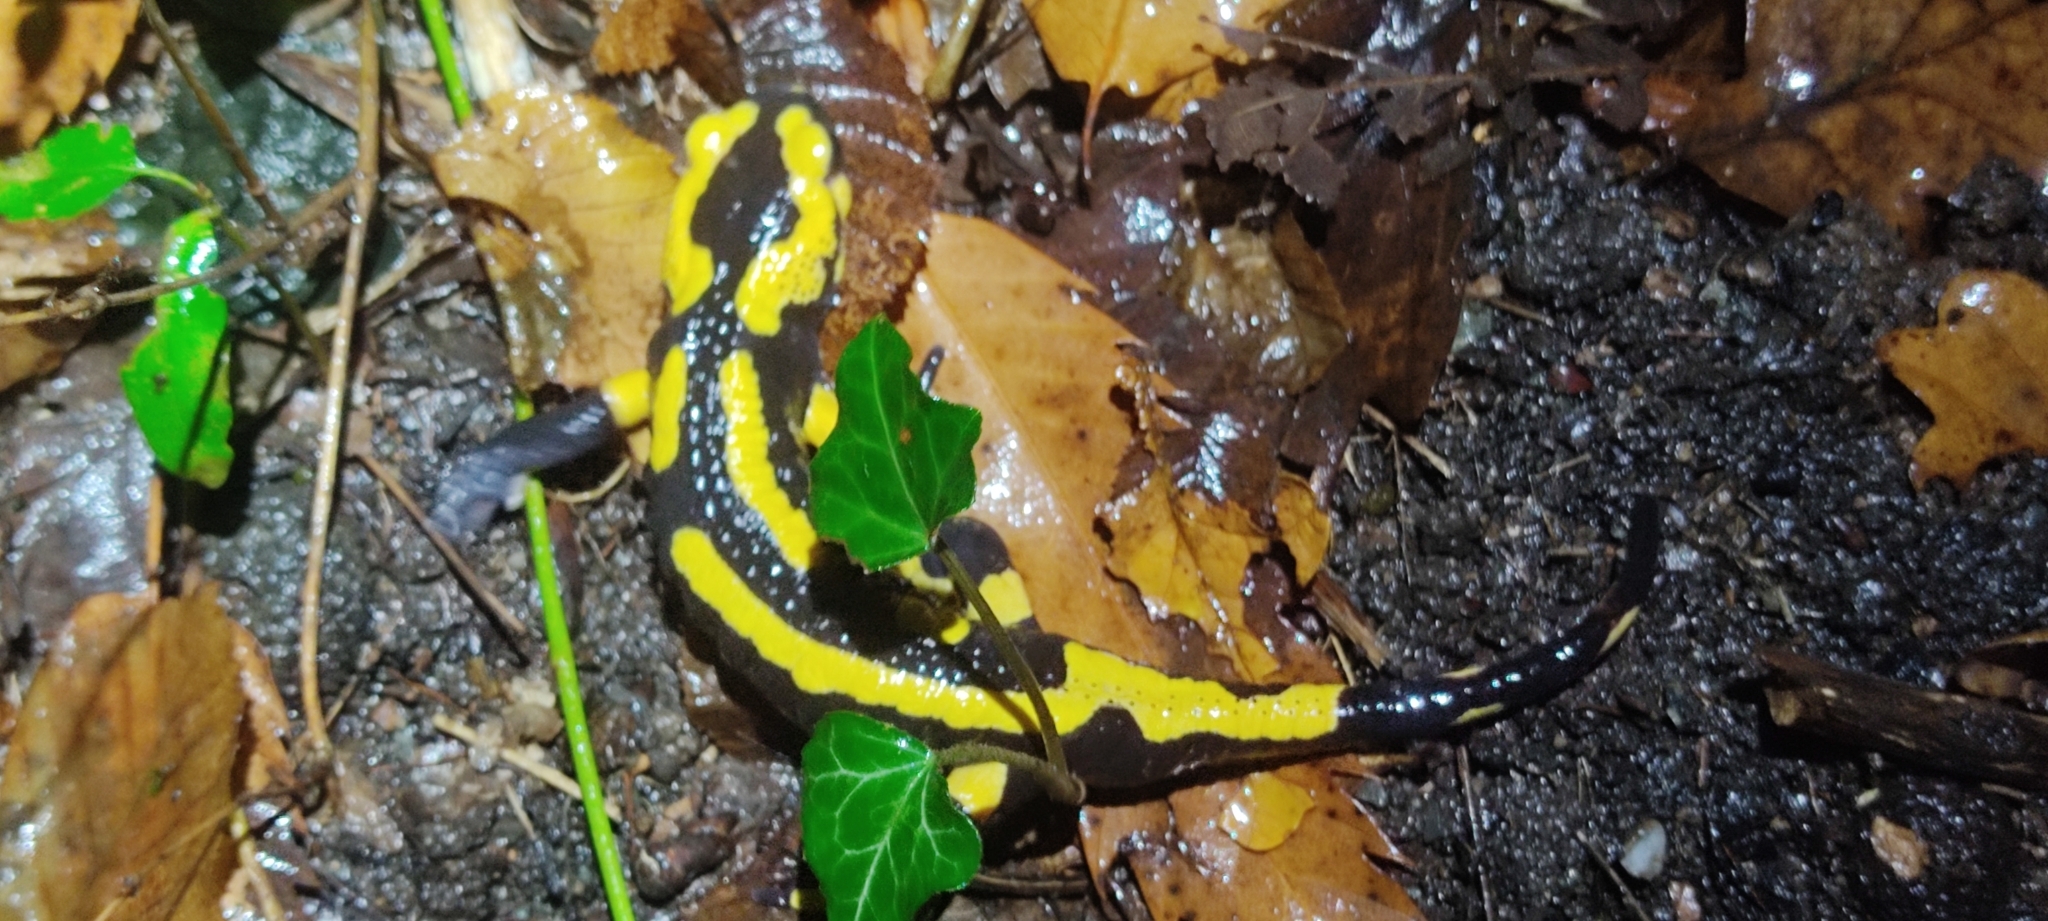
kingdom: Animalia
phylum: Chordata
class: Amphibia
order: Caudata
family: Salamandridae
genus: Salamandra
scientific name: Salamandra salamandra
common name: Fire salamander
